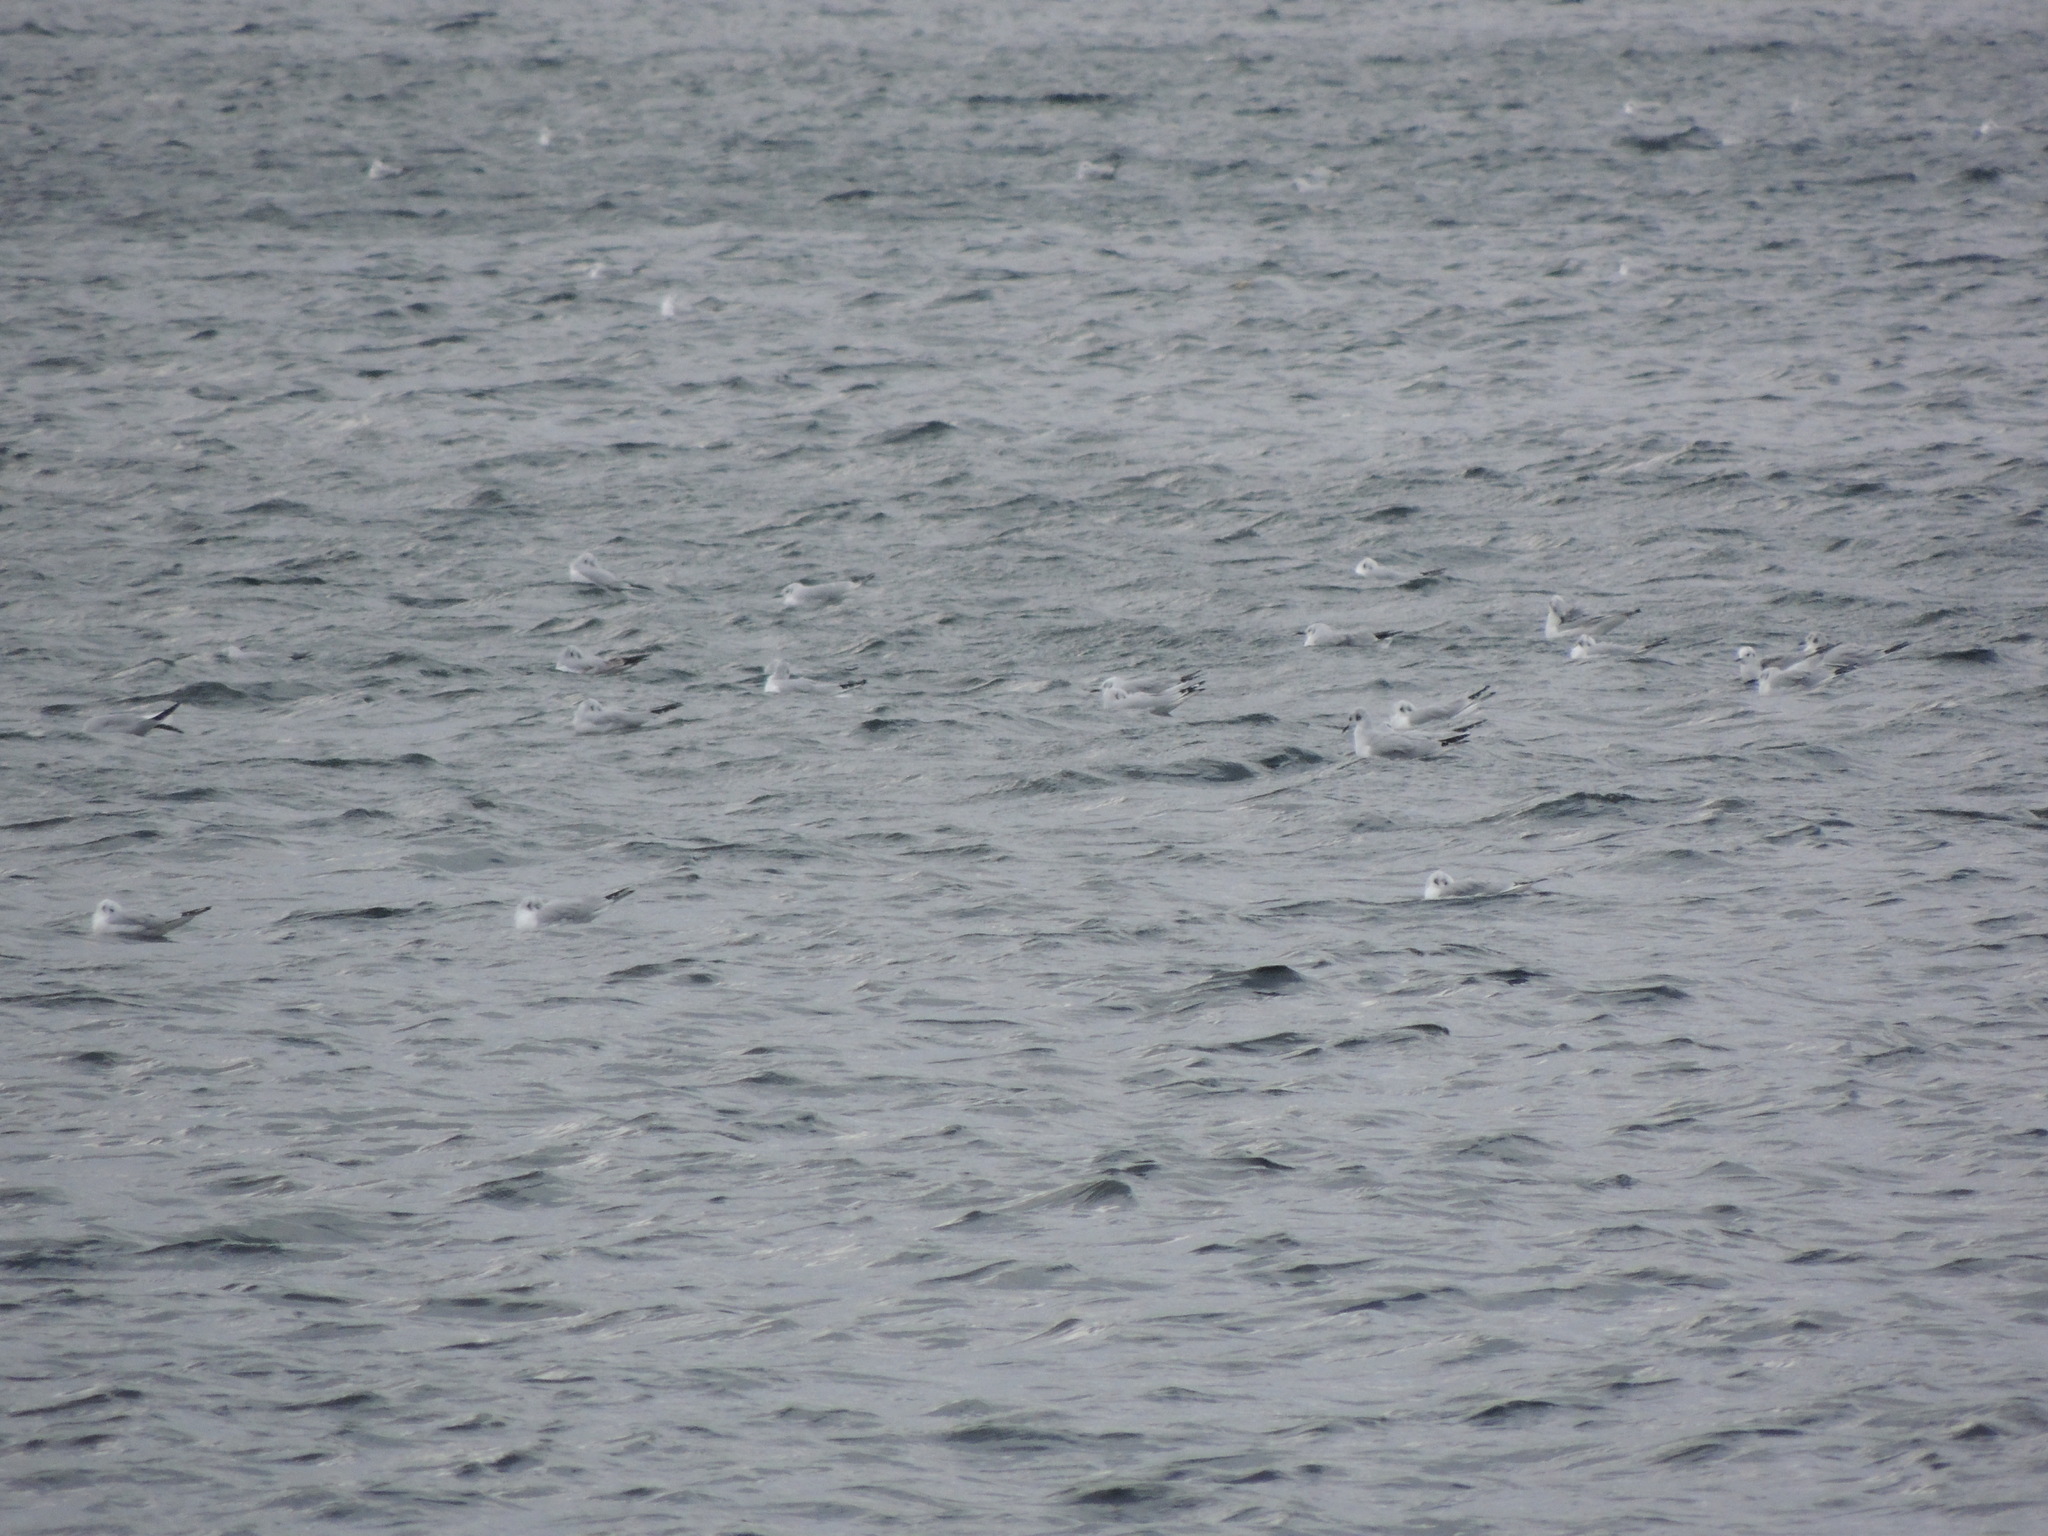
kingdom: Animalia
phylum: Chordata
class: Aves
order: Charadriiformes
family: Laridae
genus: Chroicocephalus
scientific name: Chroicocephalus philadelphia
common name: Bonaparte's gull
